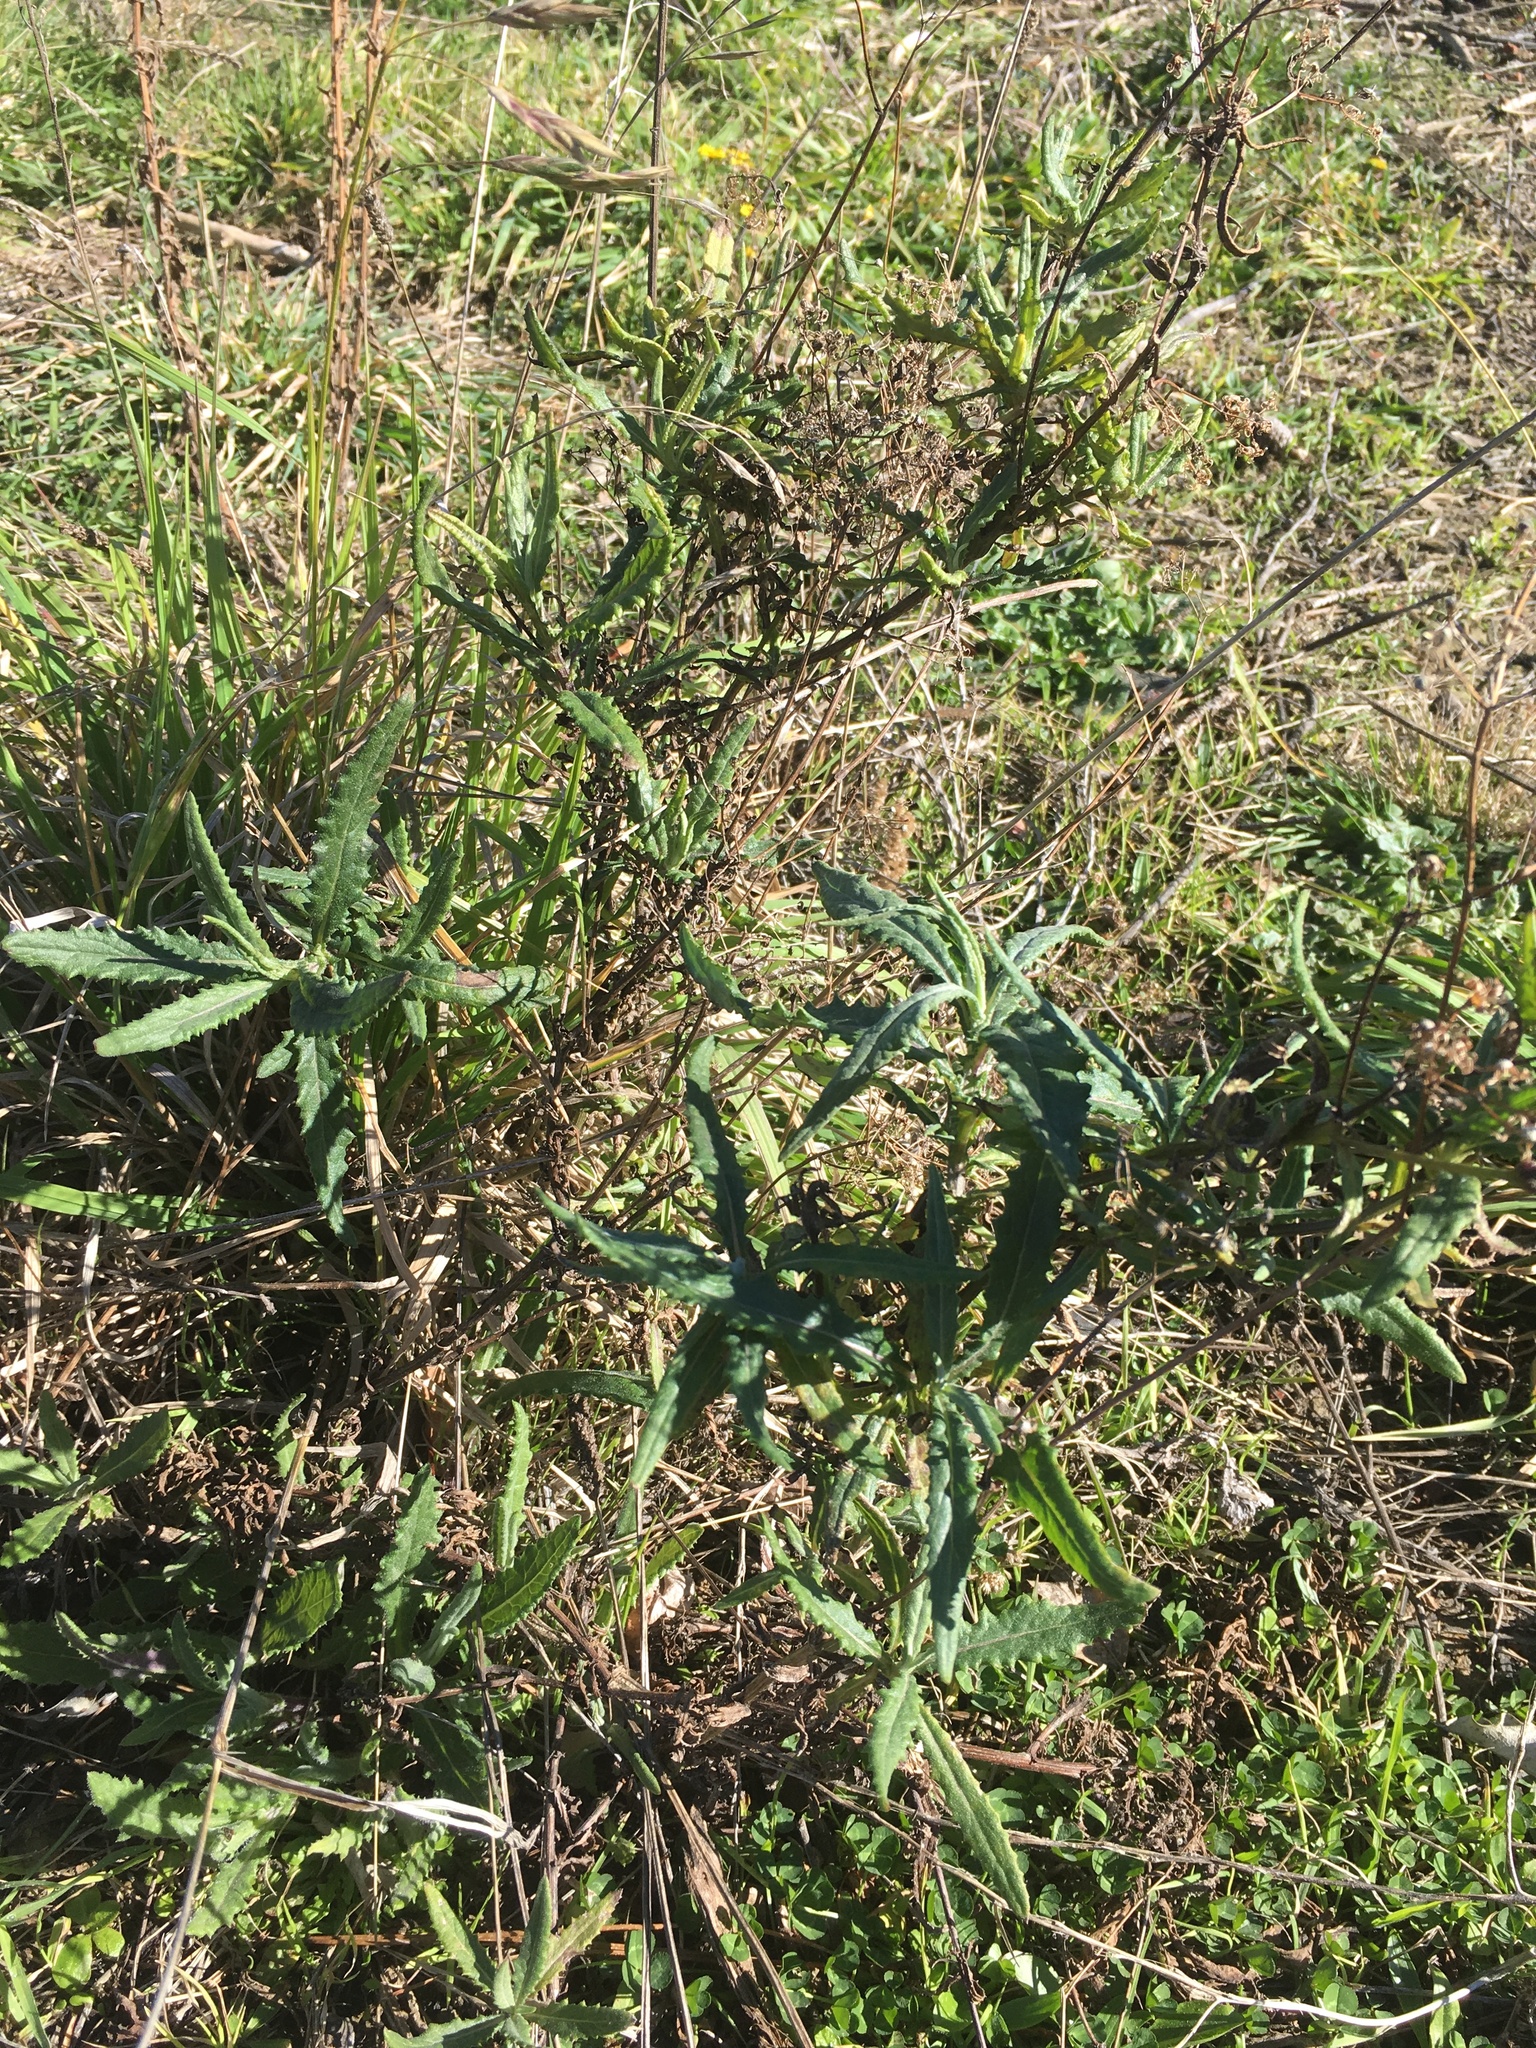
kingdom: Plantae
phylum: Tracheophyta
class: Magnoliopsida
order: Asterales
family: Asteraceae
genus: Senecio
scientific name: Senecio minimus
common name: Toothed fireweed
